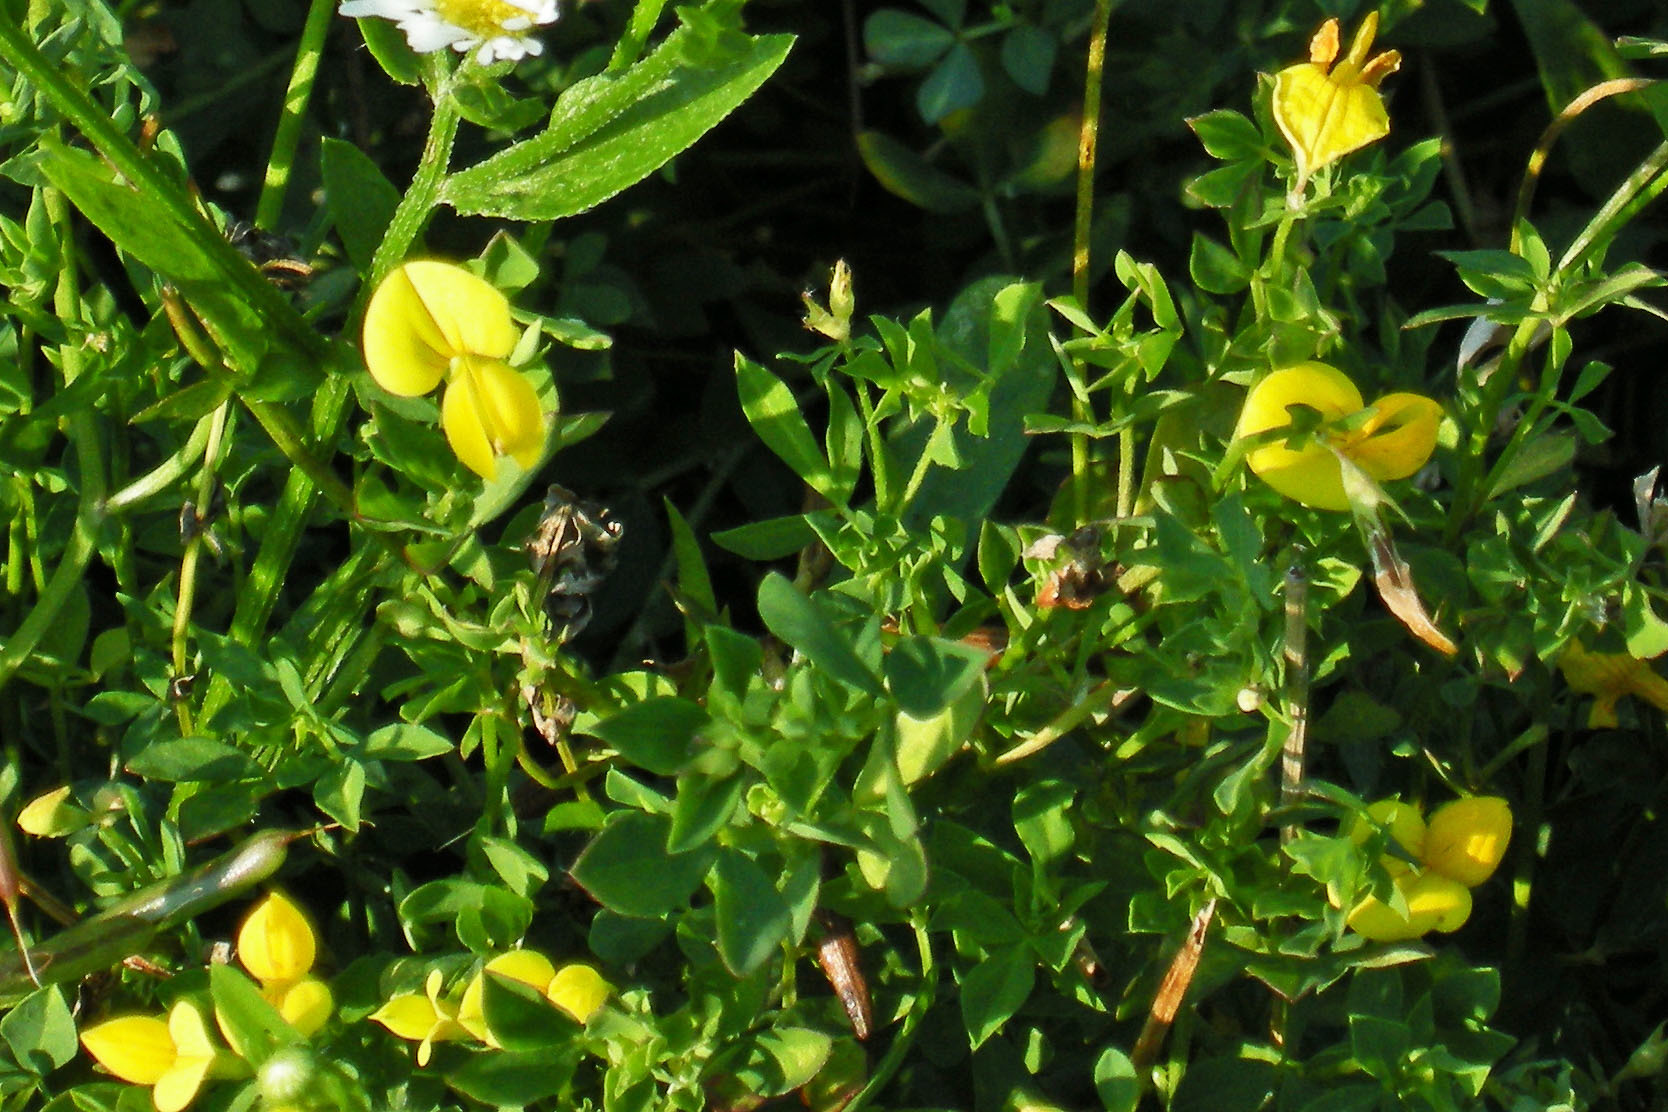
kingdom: Plantae
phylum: Tracheophyta
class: Magnoliopsida
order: Fabales
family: Fabaceae
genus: Lotus
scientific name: Lotus corniculatus
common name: Common bird's-foot-trefoil
